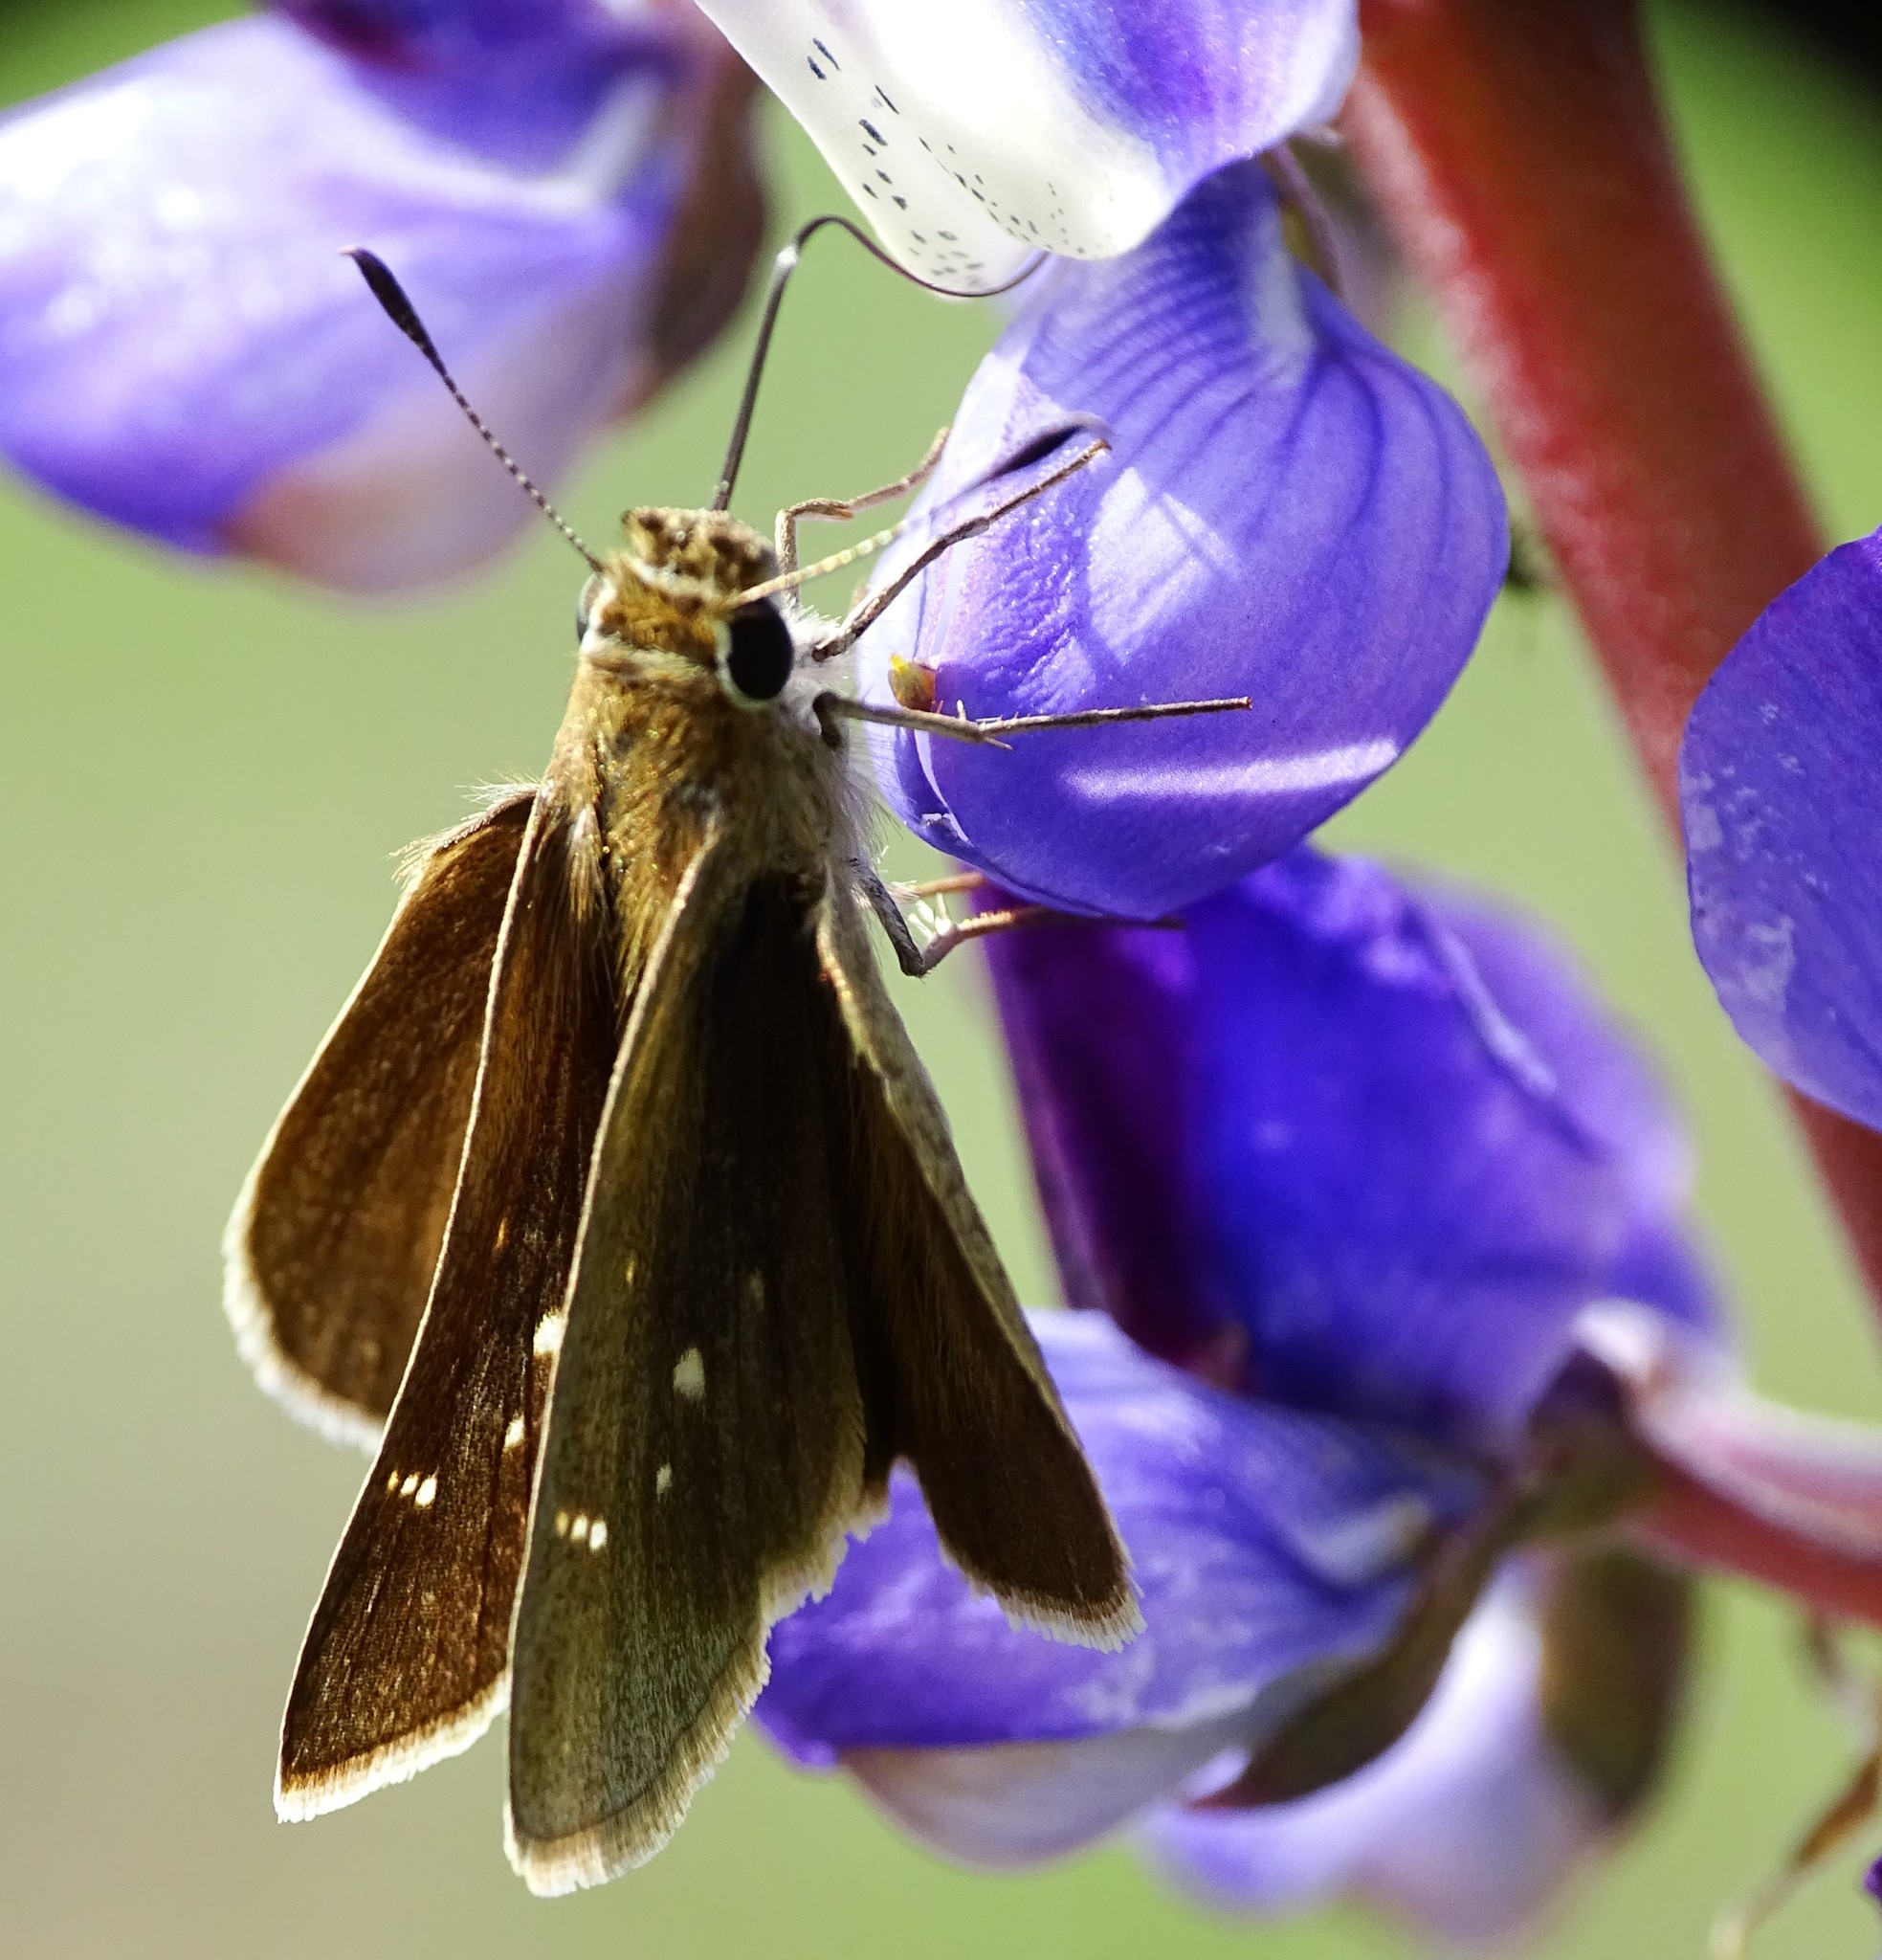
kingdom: Animalia
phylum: Arthropoda
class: Insecta
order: Lepidoptera
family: Hesperiidae
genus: Lerodea
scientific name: Lerodea eufala
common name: Eufala skipper
